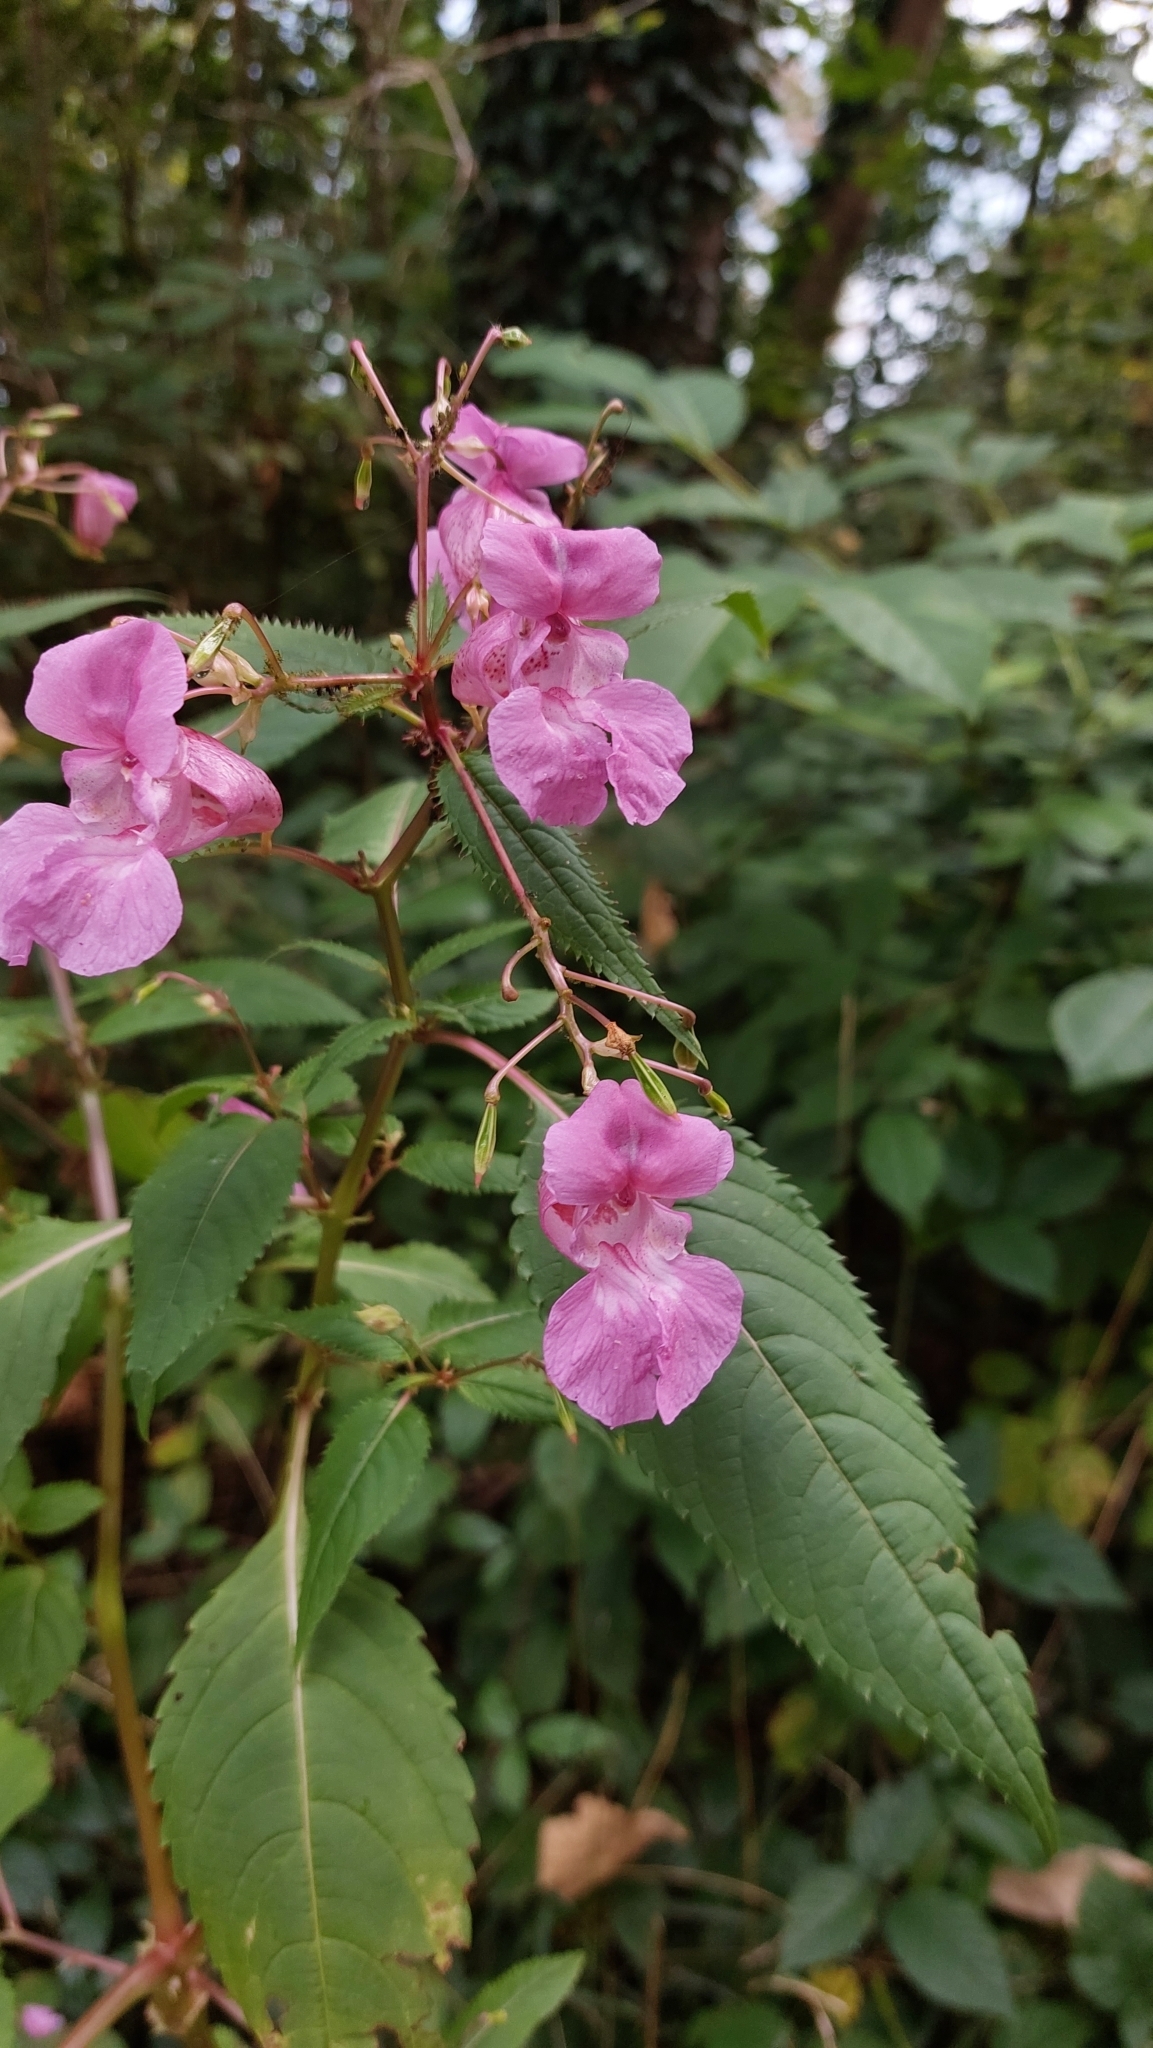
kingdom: Plantae
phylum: Tracheophyta
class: Magnoliopsida
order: Ericales
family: Balsaminaceae
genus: Impatiens
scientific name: Impatiens glandulifera
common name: Himalayan balsam
